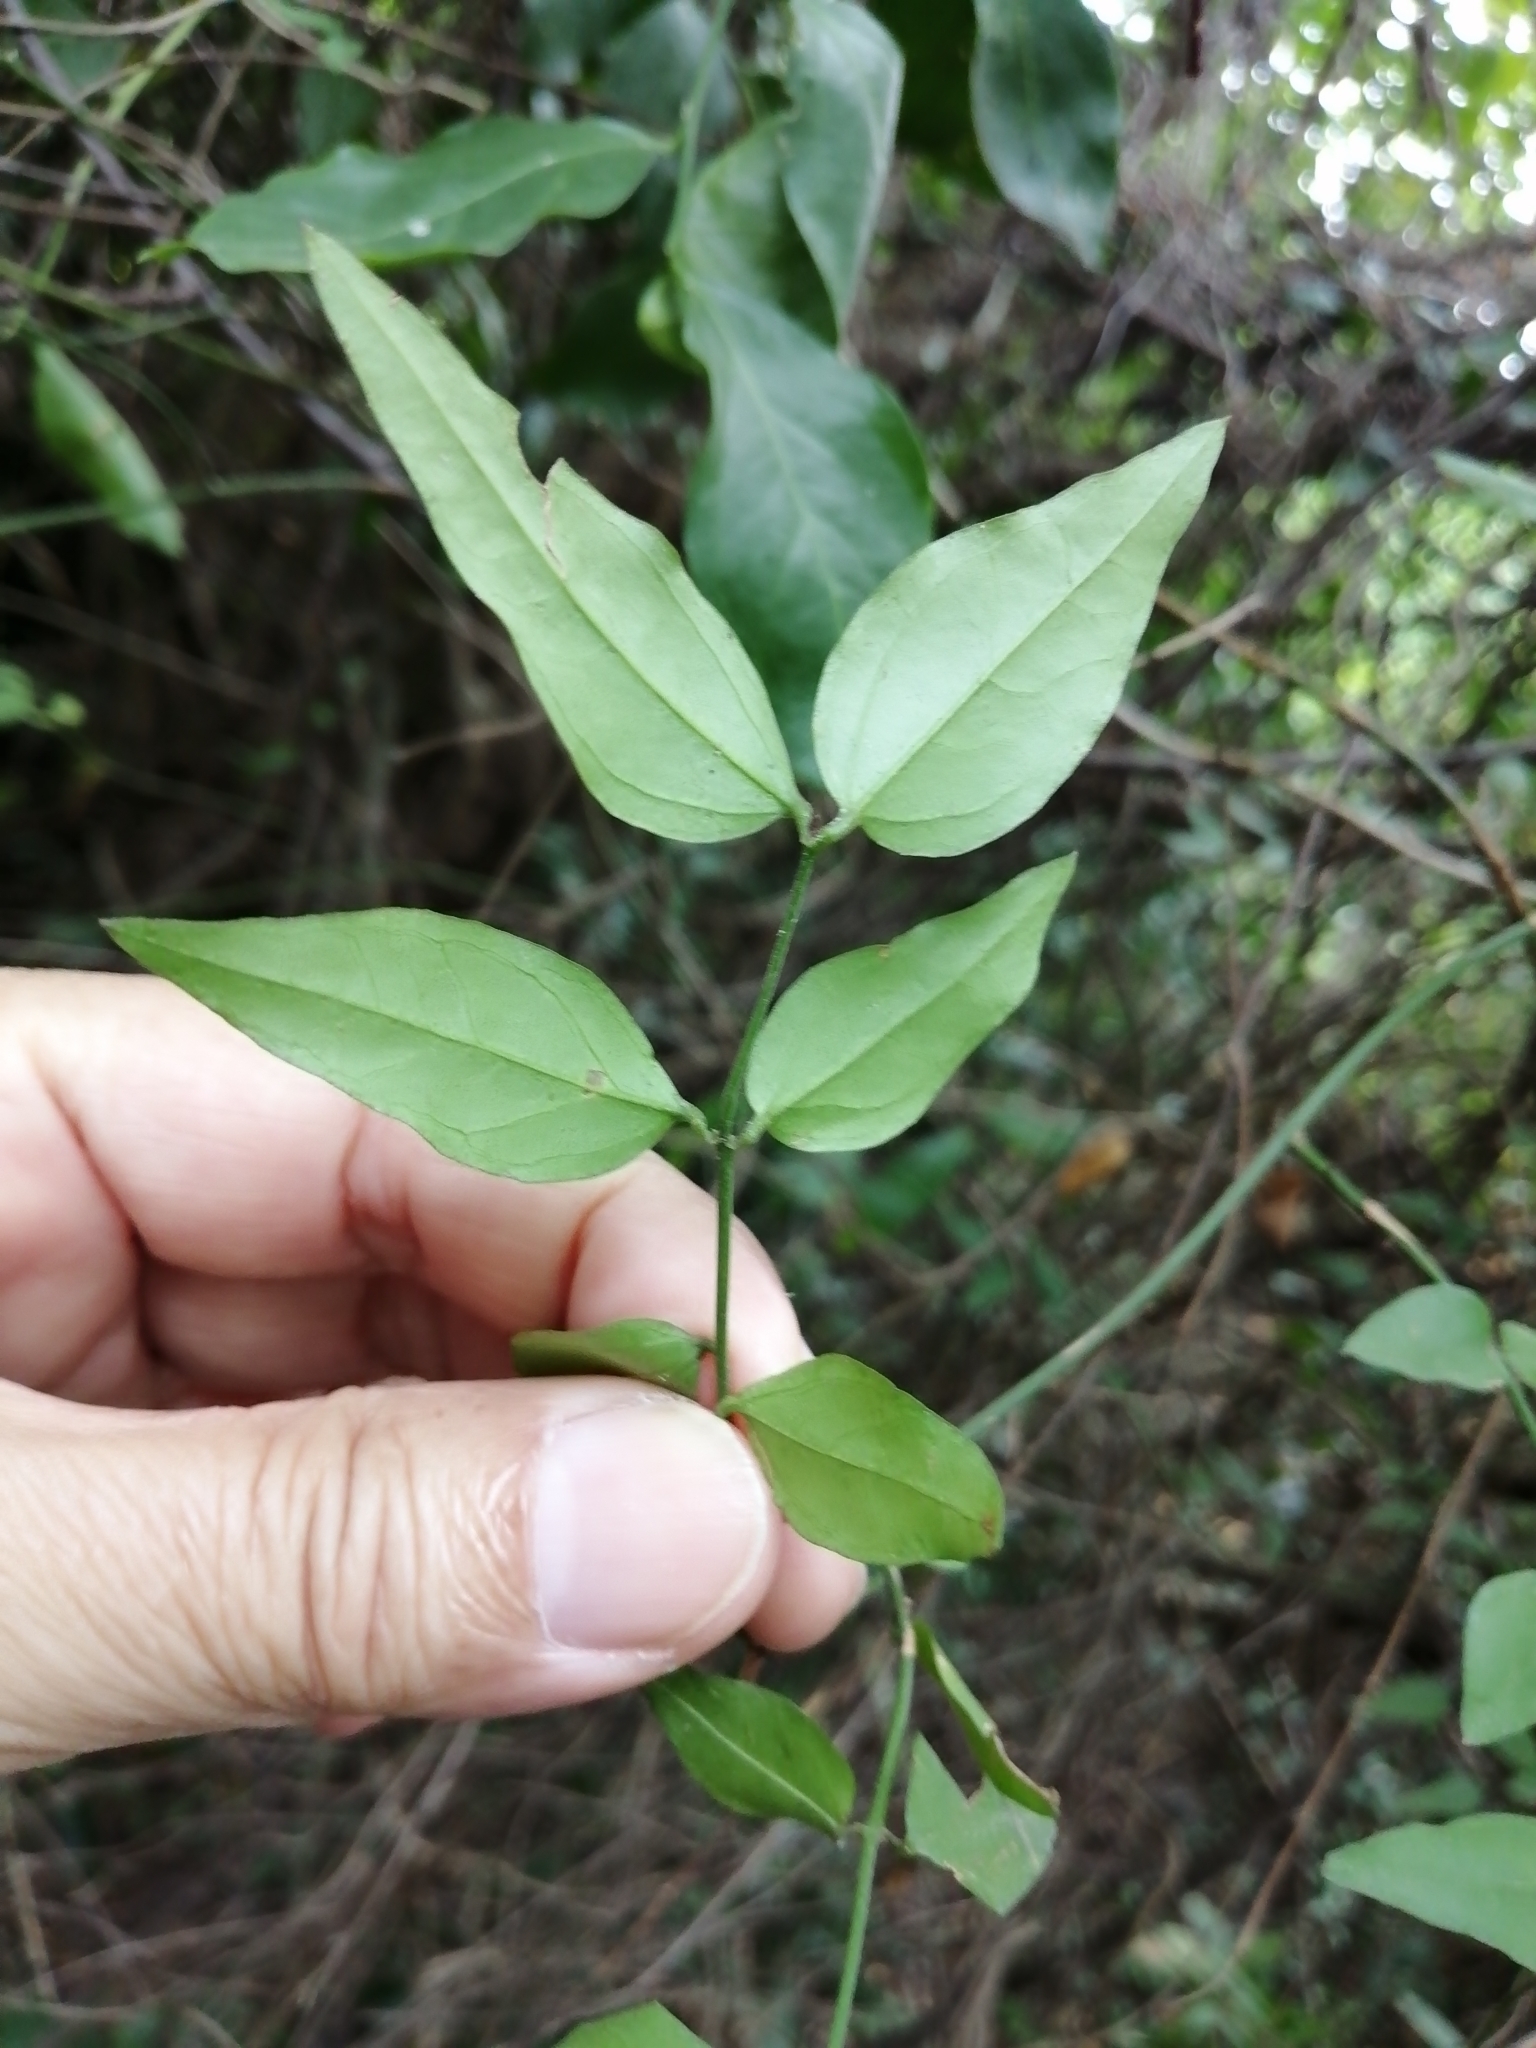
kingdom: Plantae
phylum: Tracheophyta
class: Magnoliopsida
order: Lamiales
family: Oleaceae
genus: Jasminum
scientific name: Jasminum nervosum
